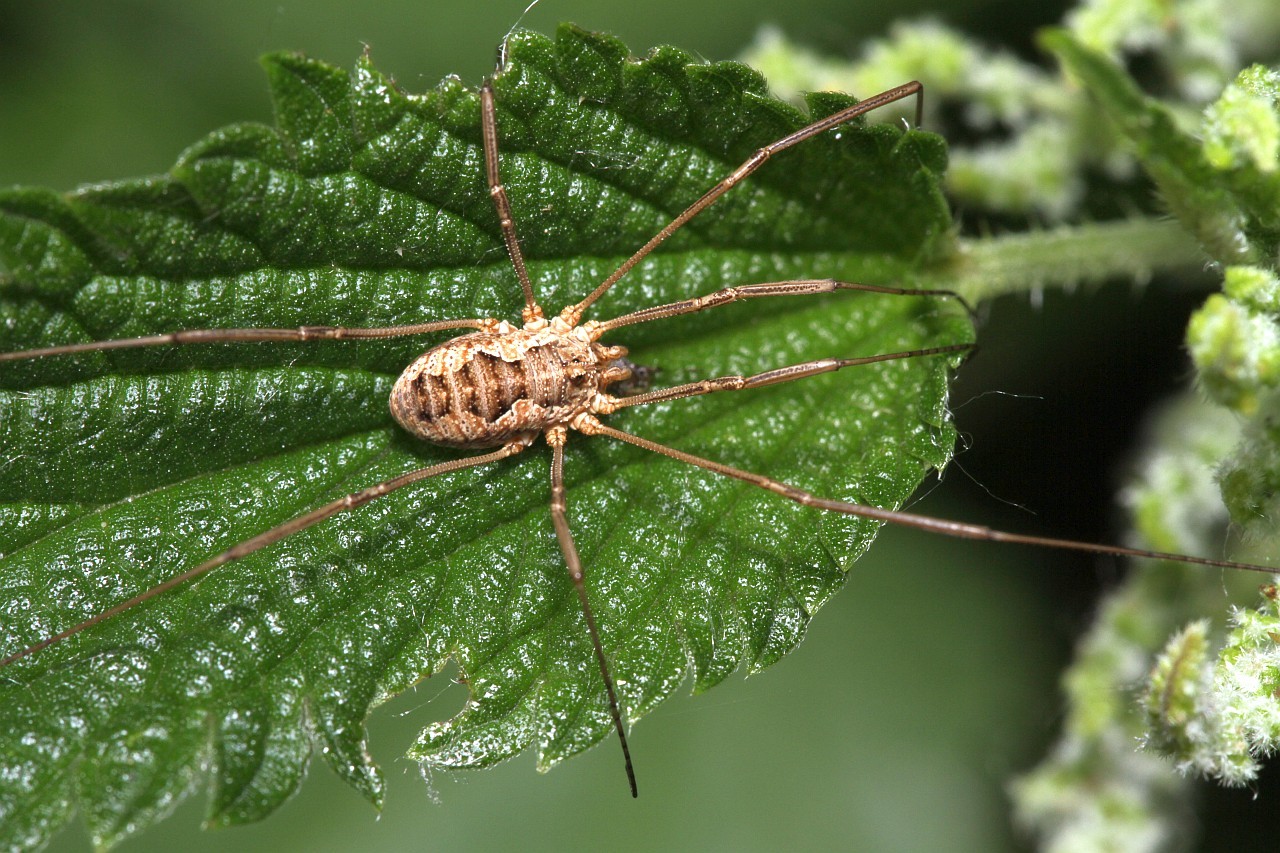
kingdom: Animalia
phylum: Arthropoda
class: Arachnida
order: Opiliones
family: Phalangiidae
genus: Phalangium
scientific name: Phalangium opilio
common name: Daddy longleg
